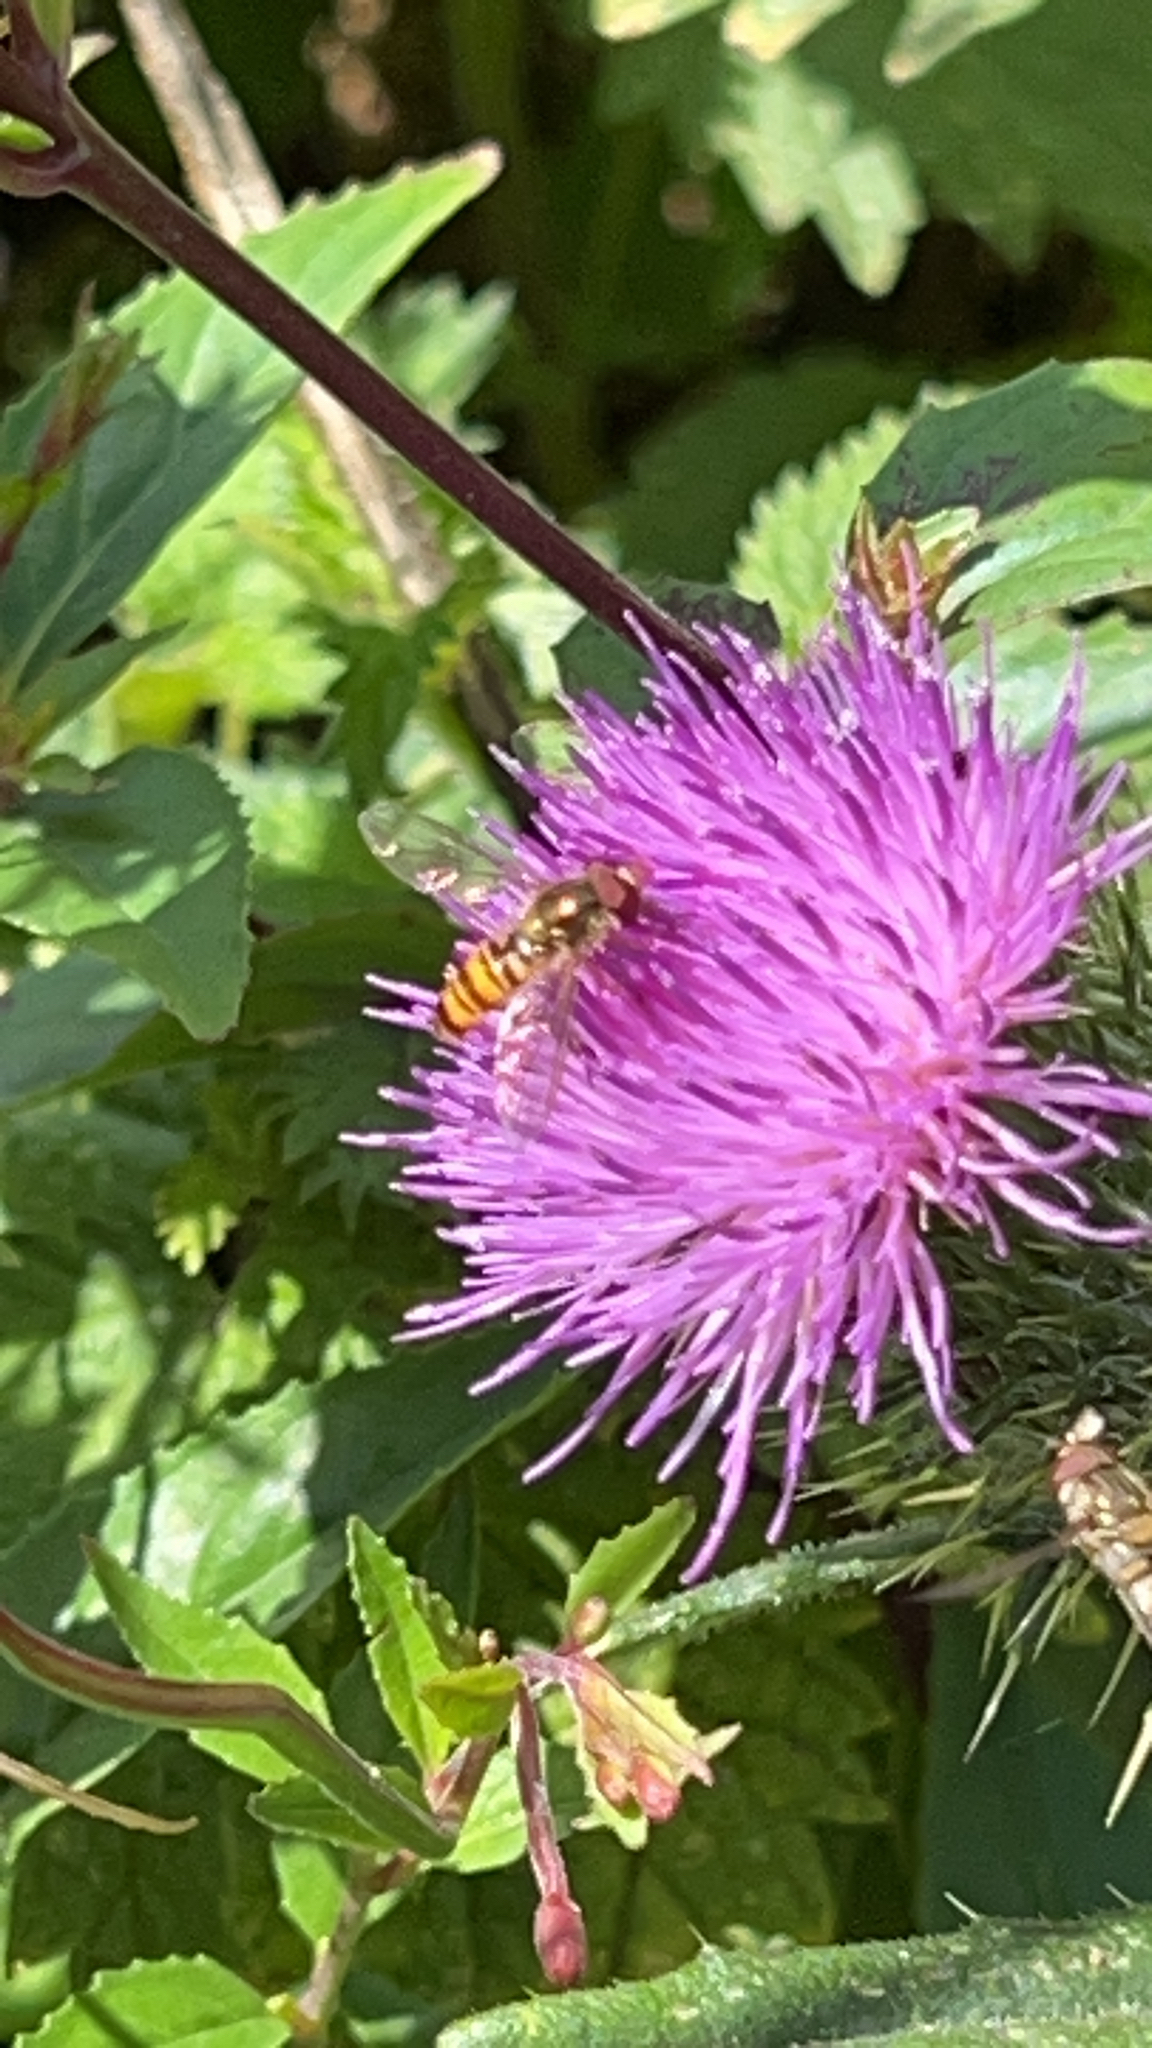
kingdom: Animalia
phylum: Arthropoda
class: Insecta
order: Diptera
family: Syrphidae
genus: Episyrphus
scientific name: Episyrphus balteatus
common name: Marmalade hoverfly
